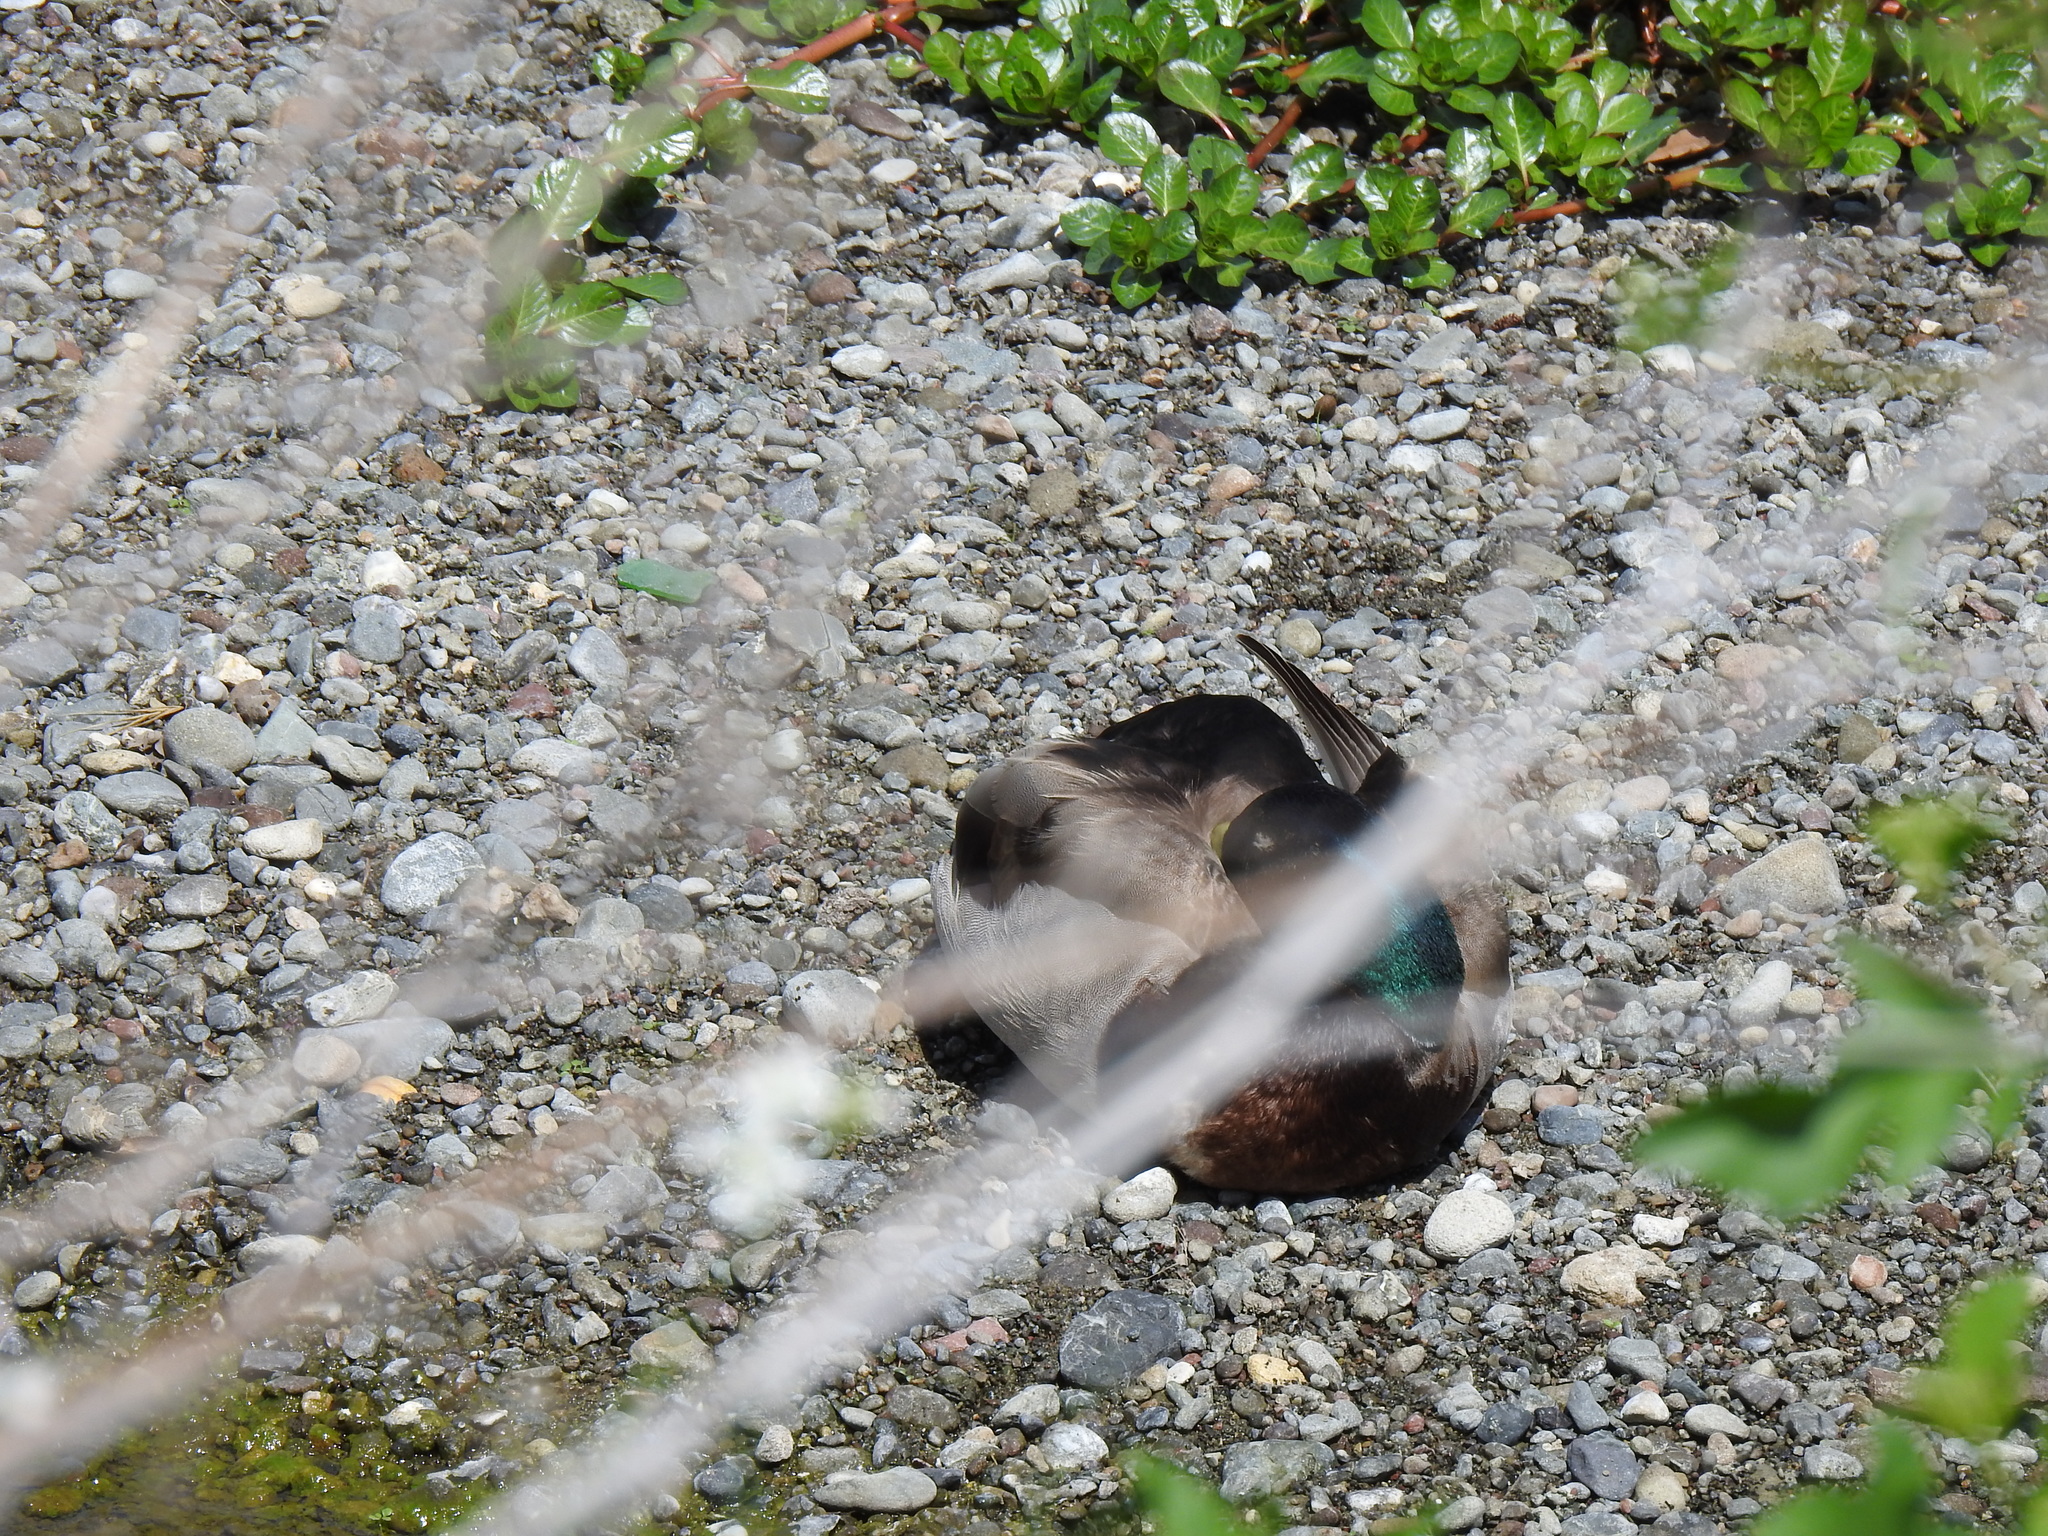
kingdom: Animalia
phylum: Chordata
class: Aves
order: Anseriformes
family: Anatidae
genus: Anas
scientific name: Anas platyrhynchos
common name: Mallard
